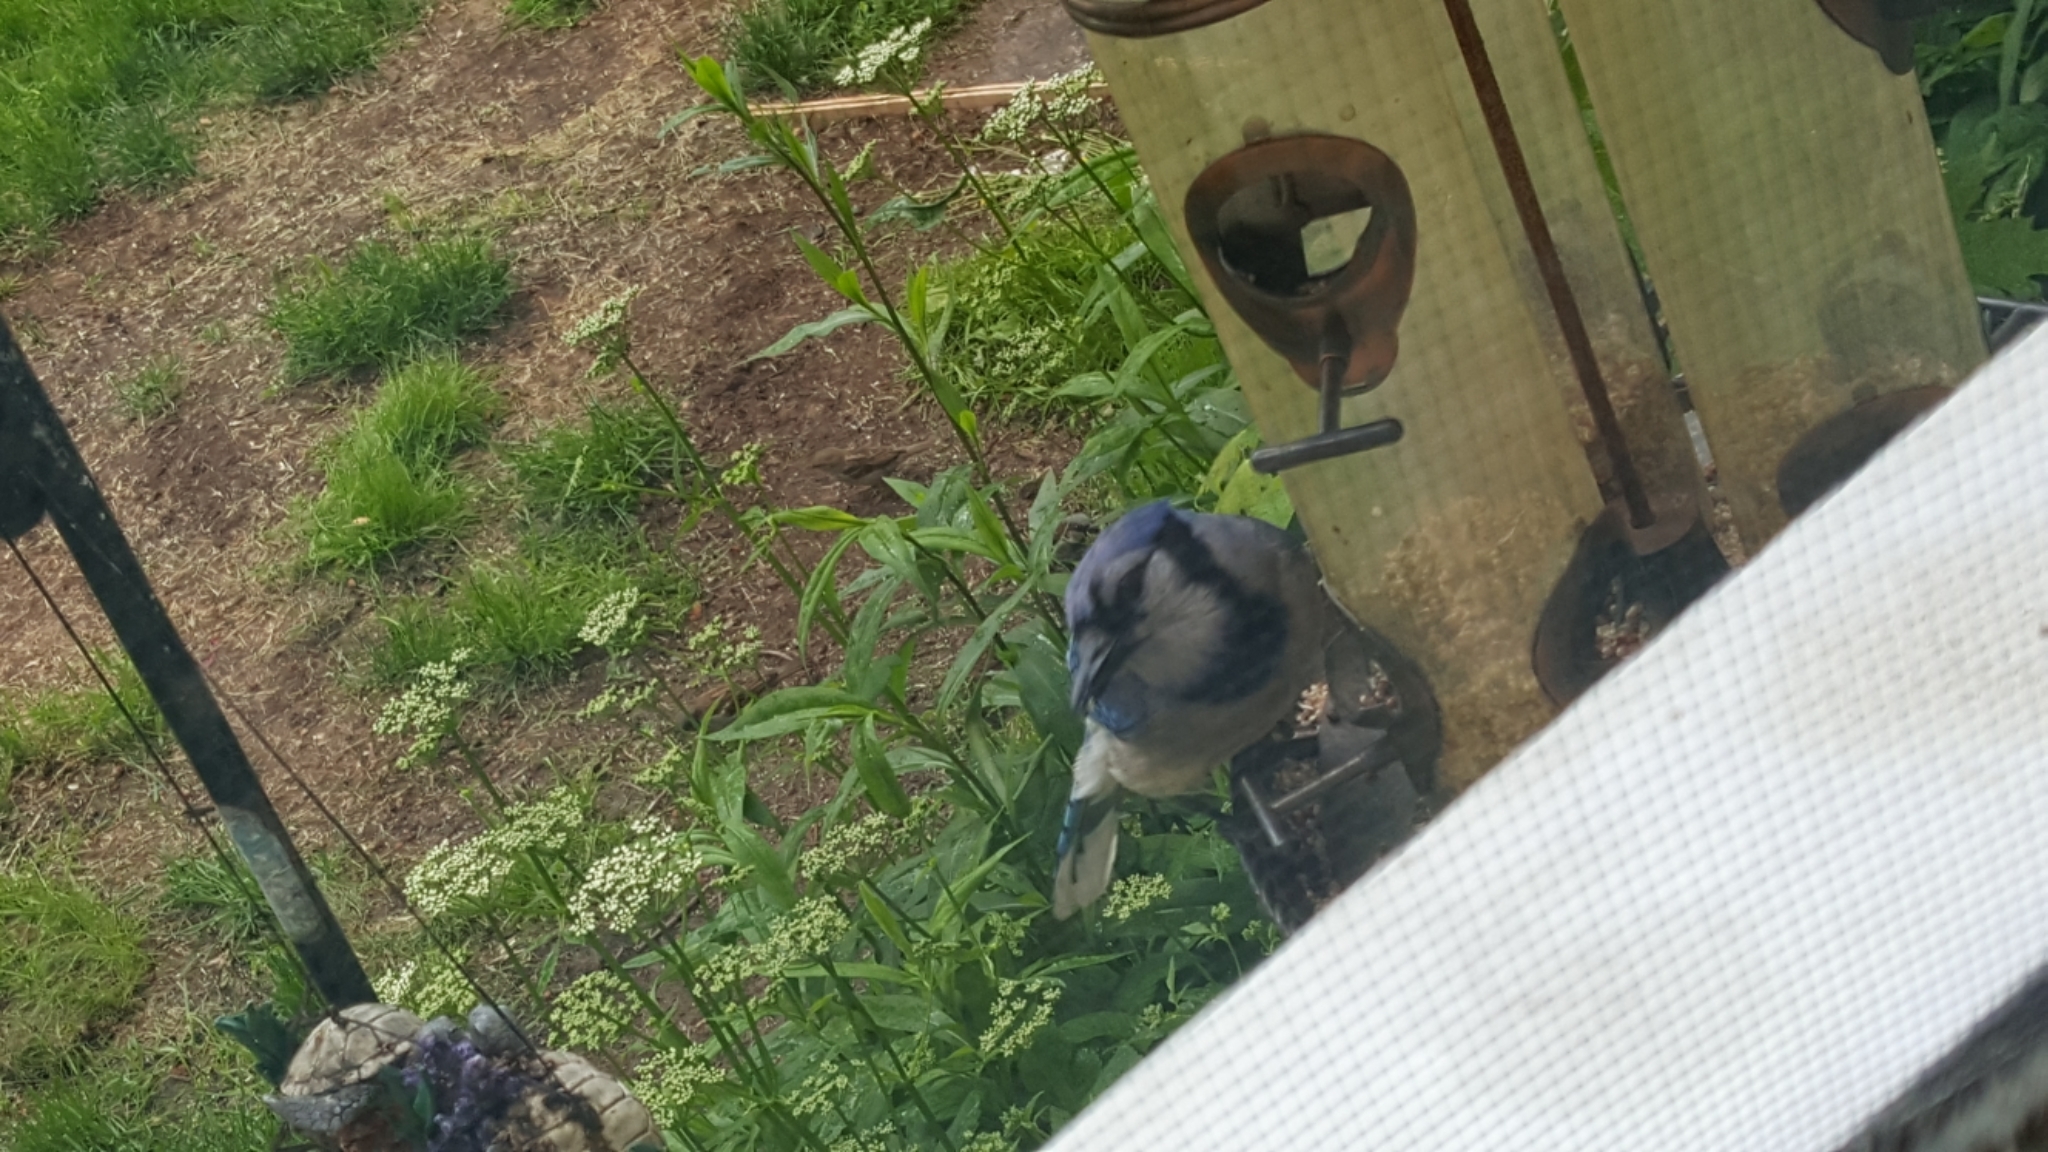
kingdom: Animalia
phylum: Chordata
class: Aves
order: Passeriformes
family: Corvidae
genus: Cyanocitta
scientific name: Cyanocitta cristata
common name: Blue jay
